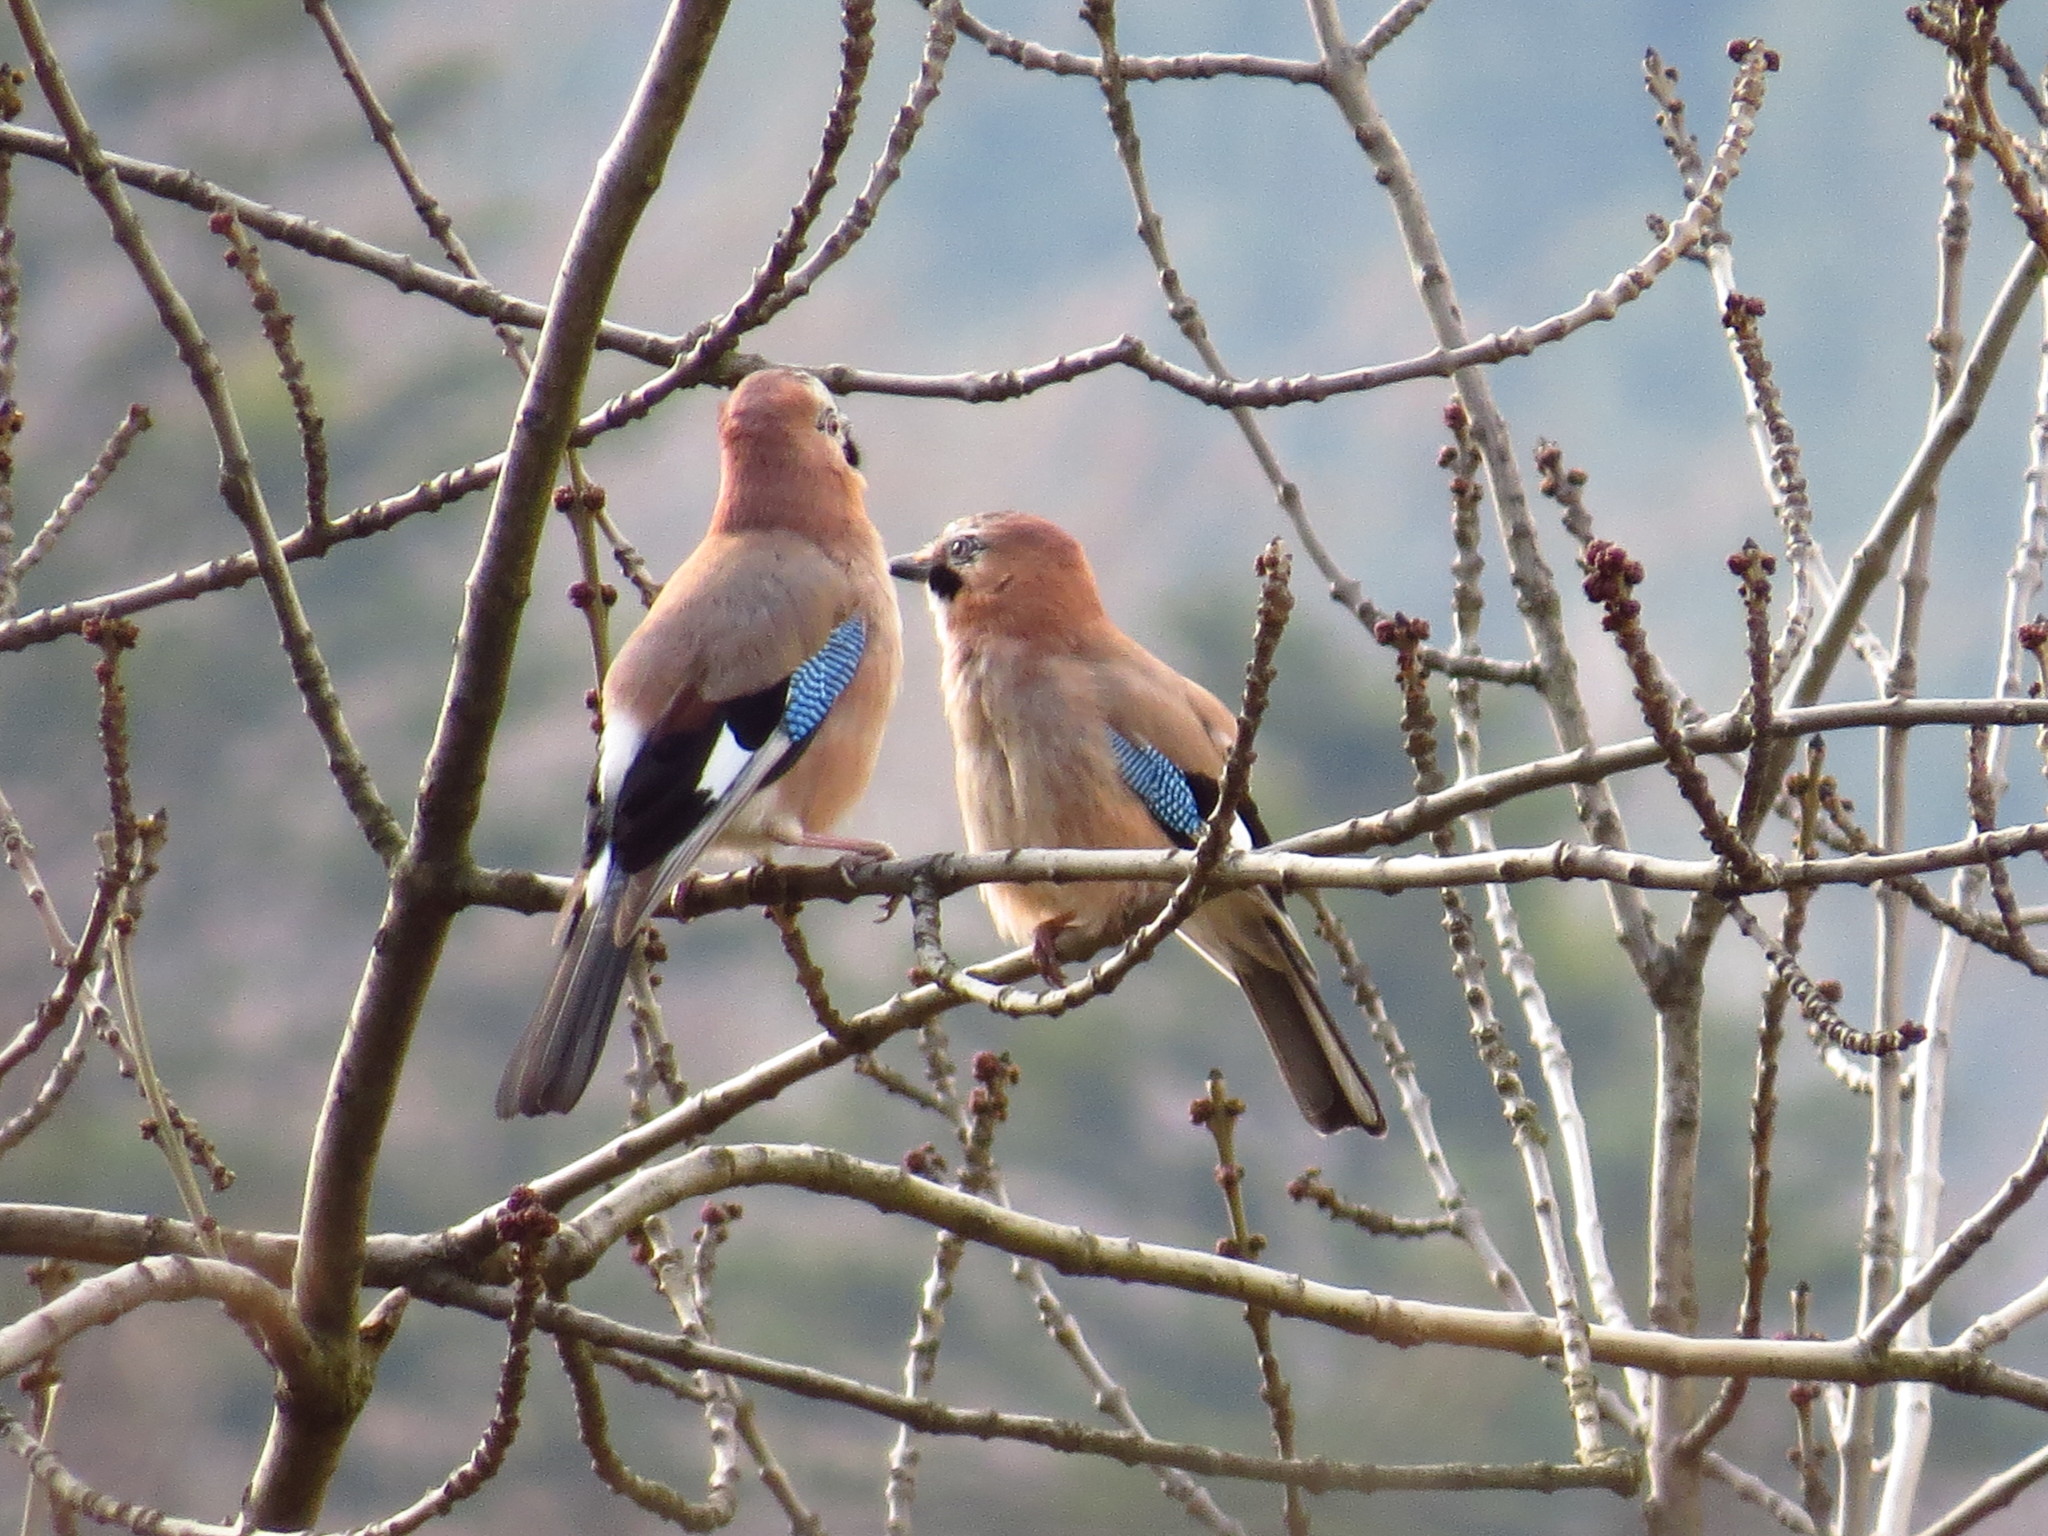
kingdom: Animalia
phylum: Chordata
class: Aves
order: Passeriformes
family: Corvidae
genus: Garrulus
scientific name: Garrulus glandarius
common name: Eurasian jay
